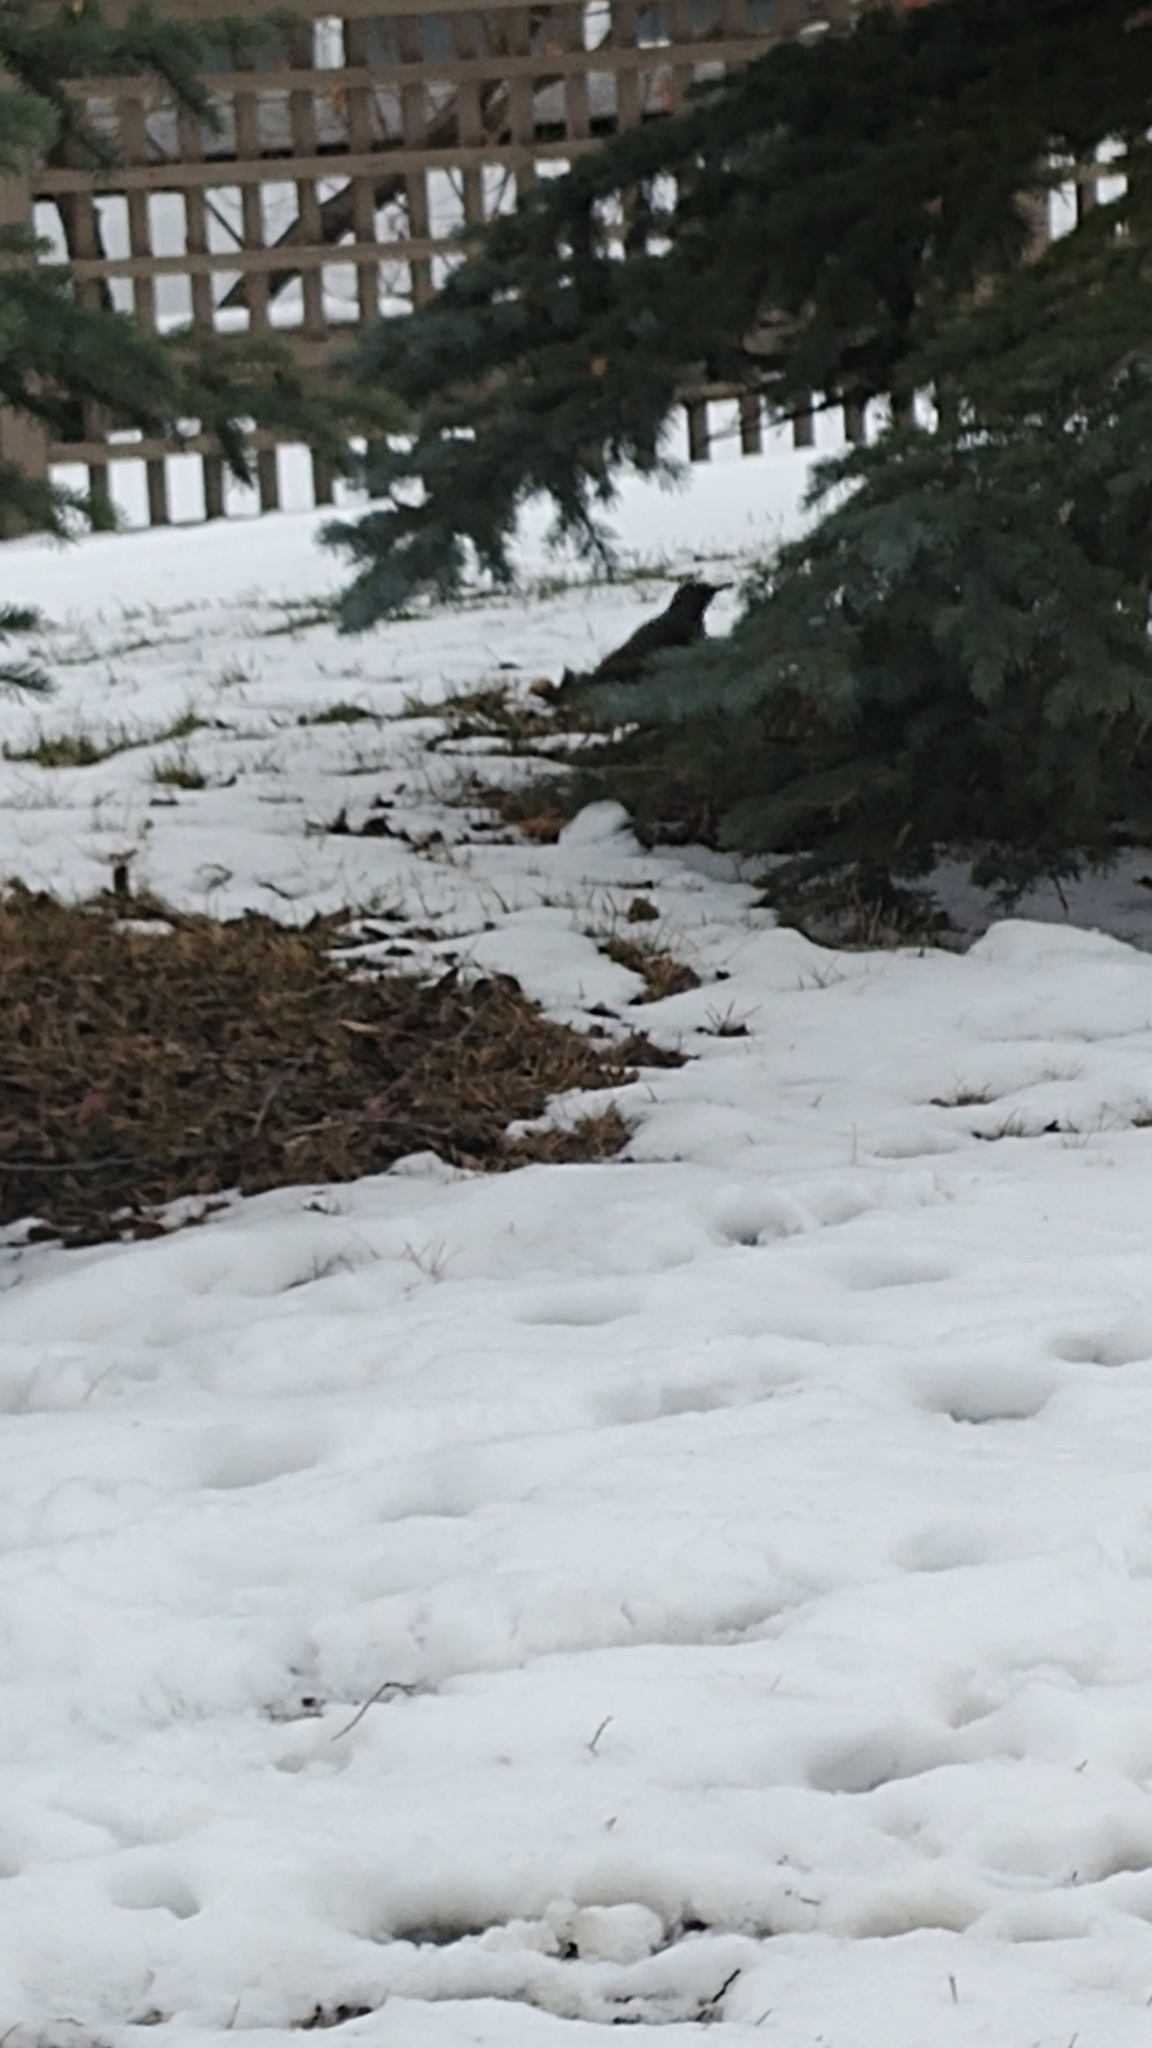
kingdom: Animalia
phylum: Chordata
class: Aves
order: Piciformes
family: Picidae
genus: Colaptes
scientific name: Colaptes auratus
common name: Northern flicker
